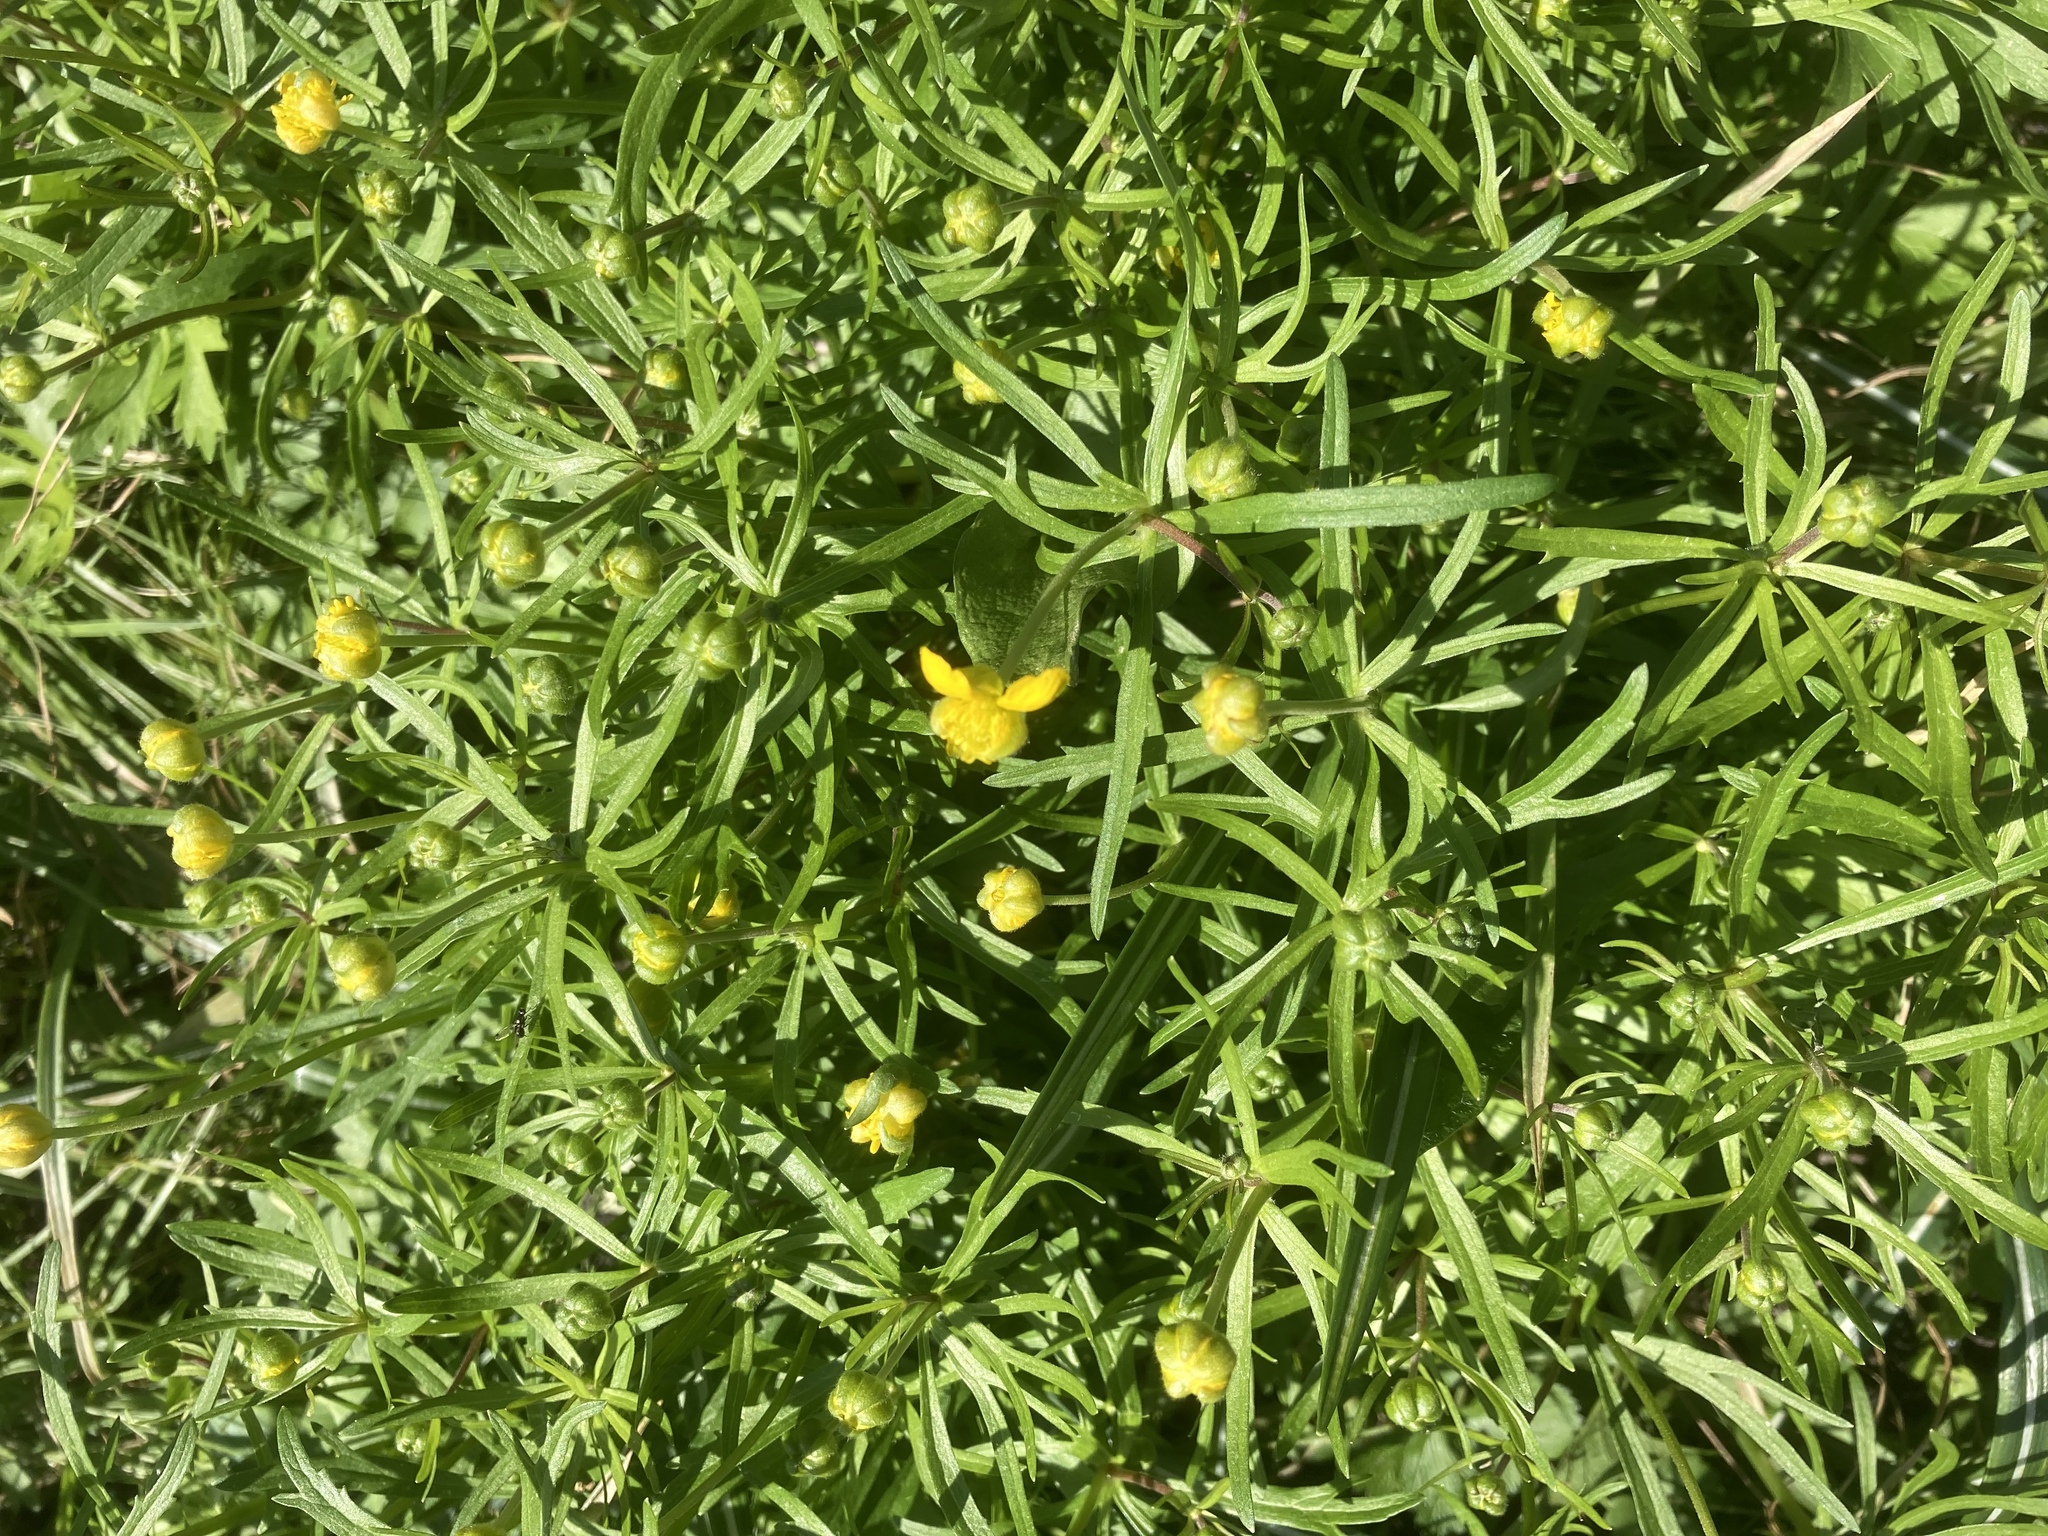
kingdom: Plantae
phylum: Tracheophyta
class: Magnoliopsida
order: Ranunculales
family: Ranunculaceae
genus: Ranunculus
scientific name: Ranunculus auricomus
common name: Goldilocks buttercup
